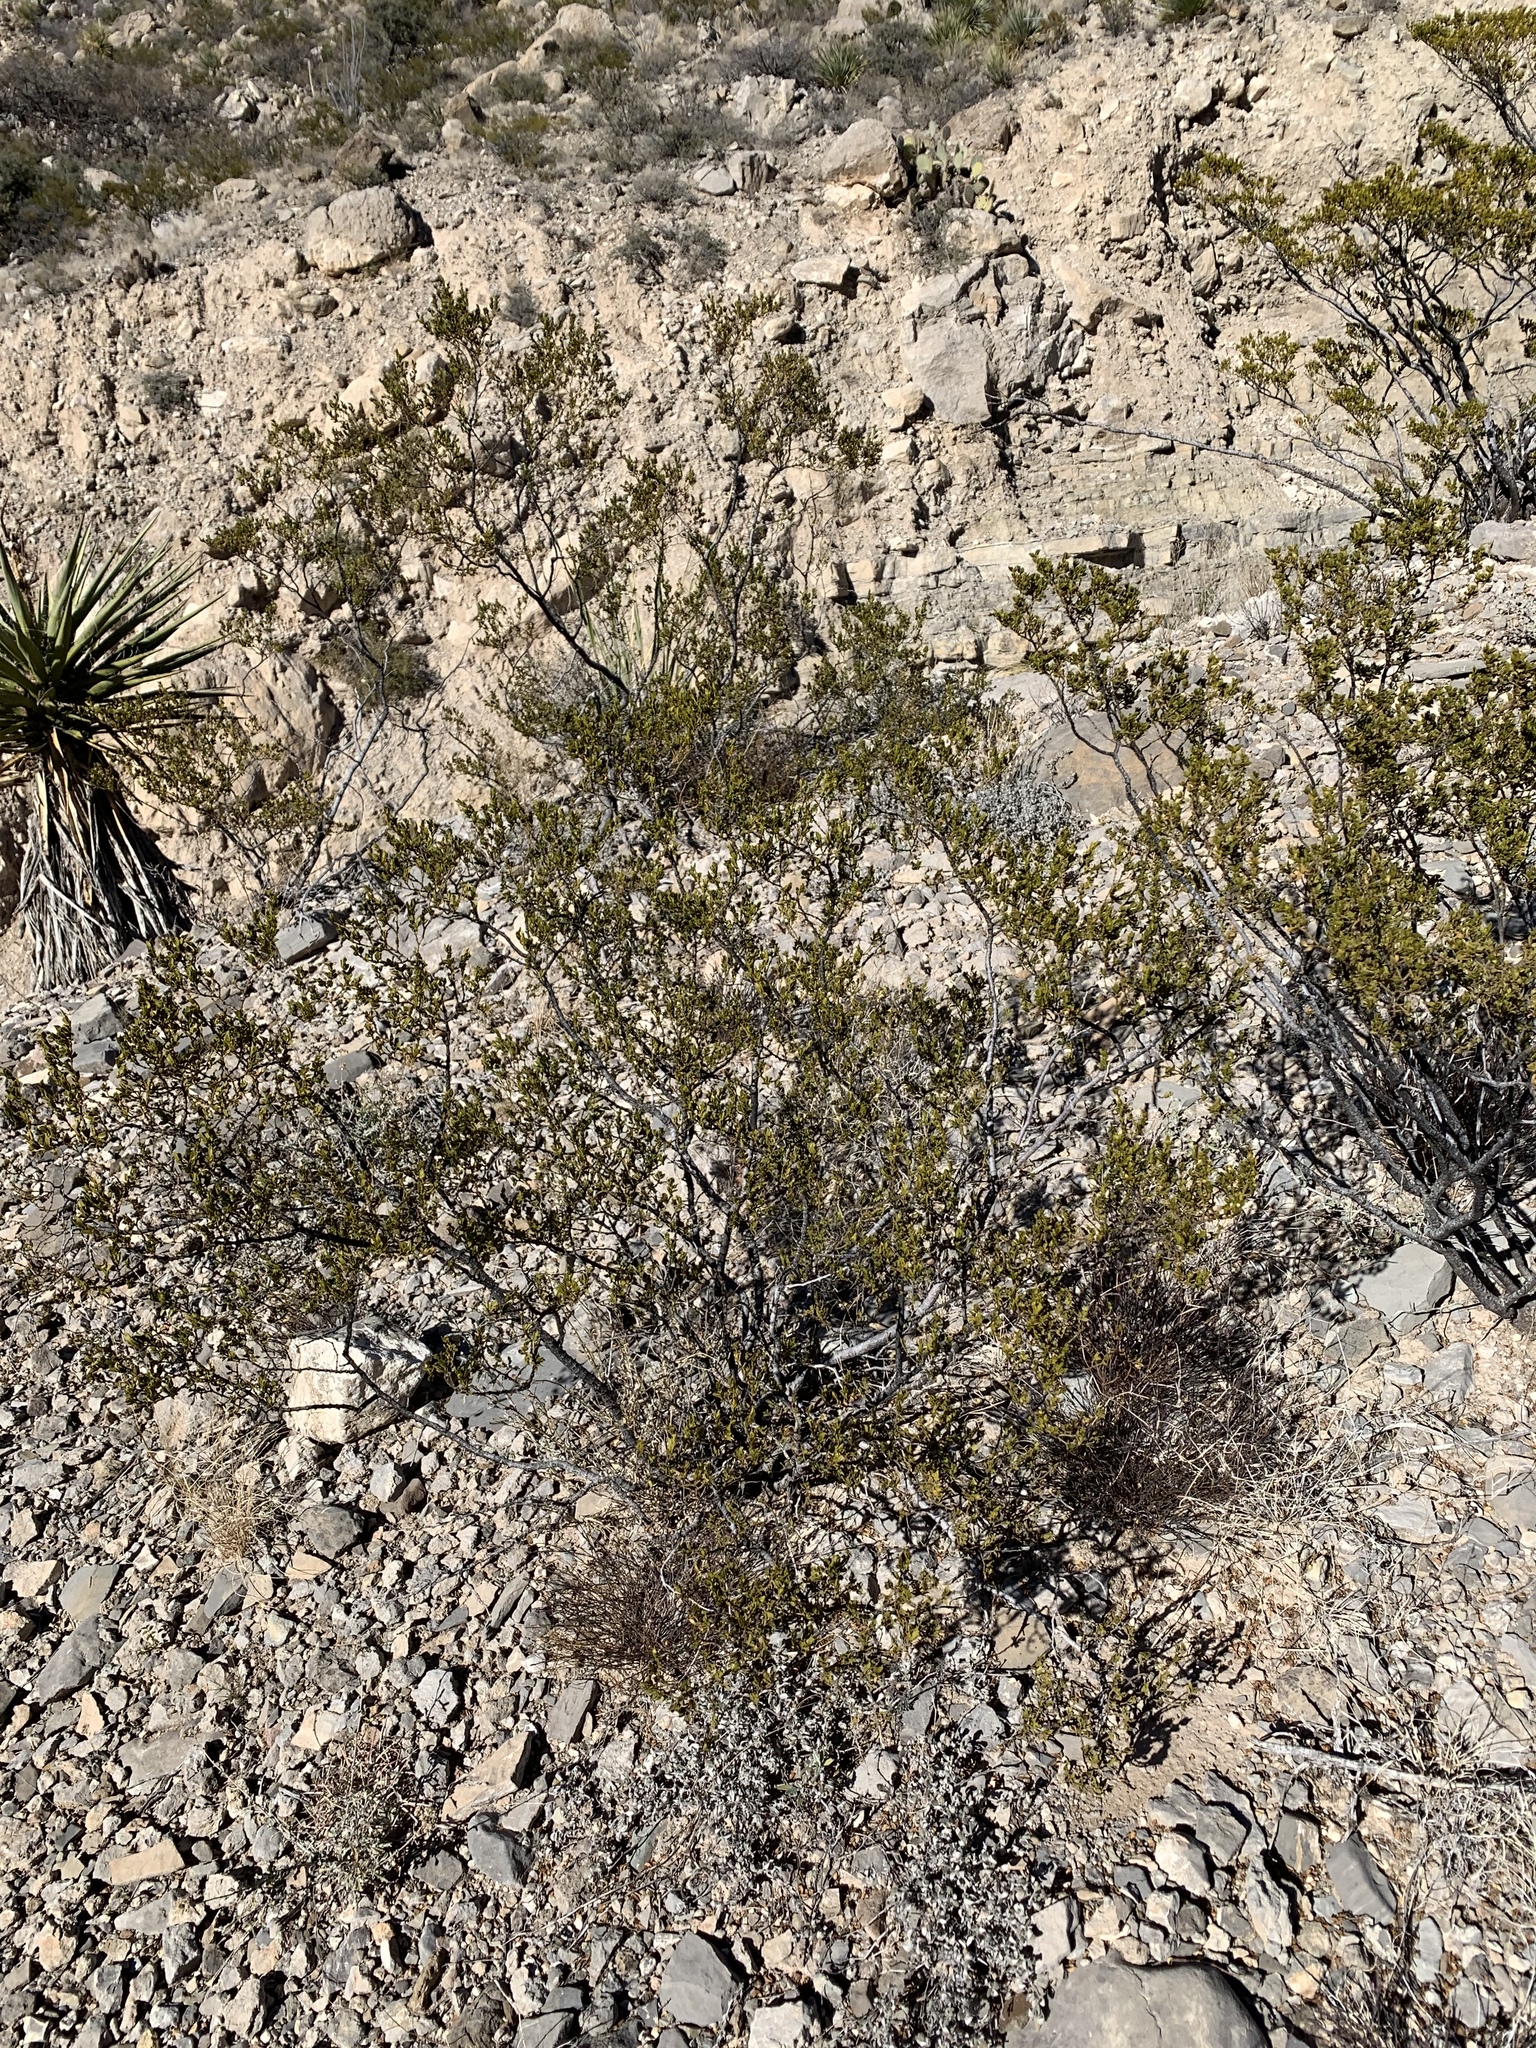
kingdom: Plantae
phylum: Tracheophyta
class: Magnoliopsida
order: Zygophyllales
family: Zygophyllaceae
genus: Larrea
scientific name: Larrea tridentata
